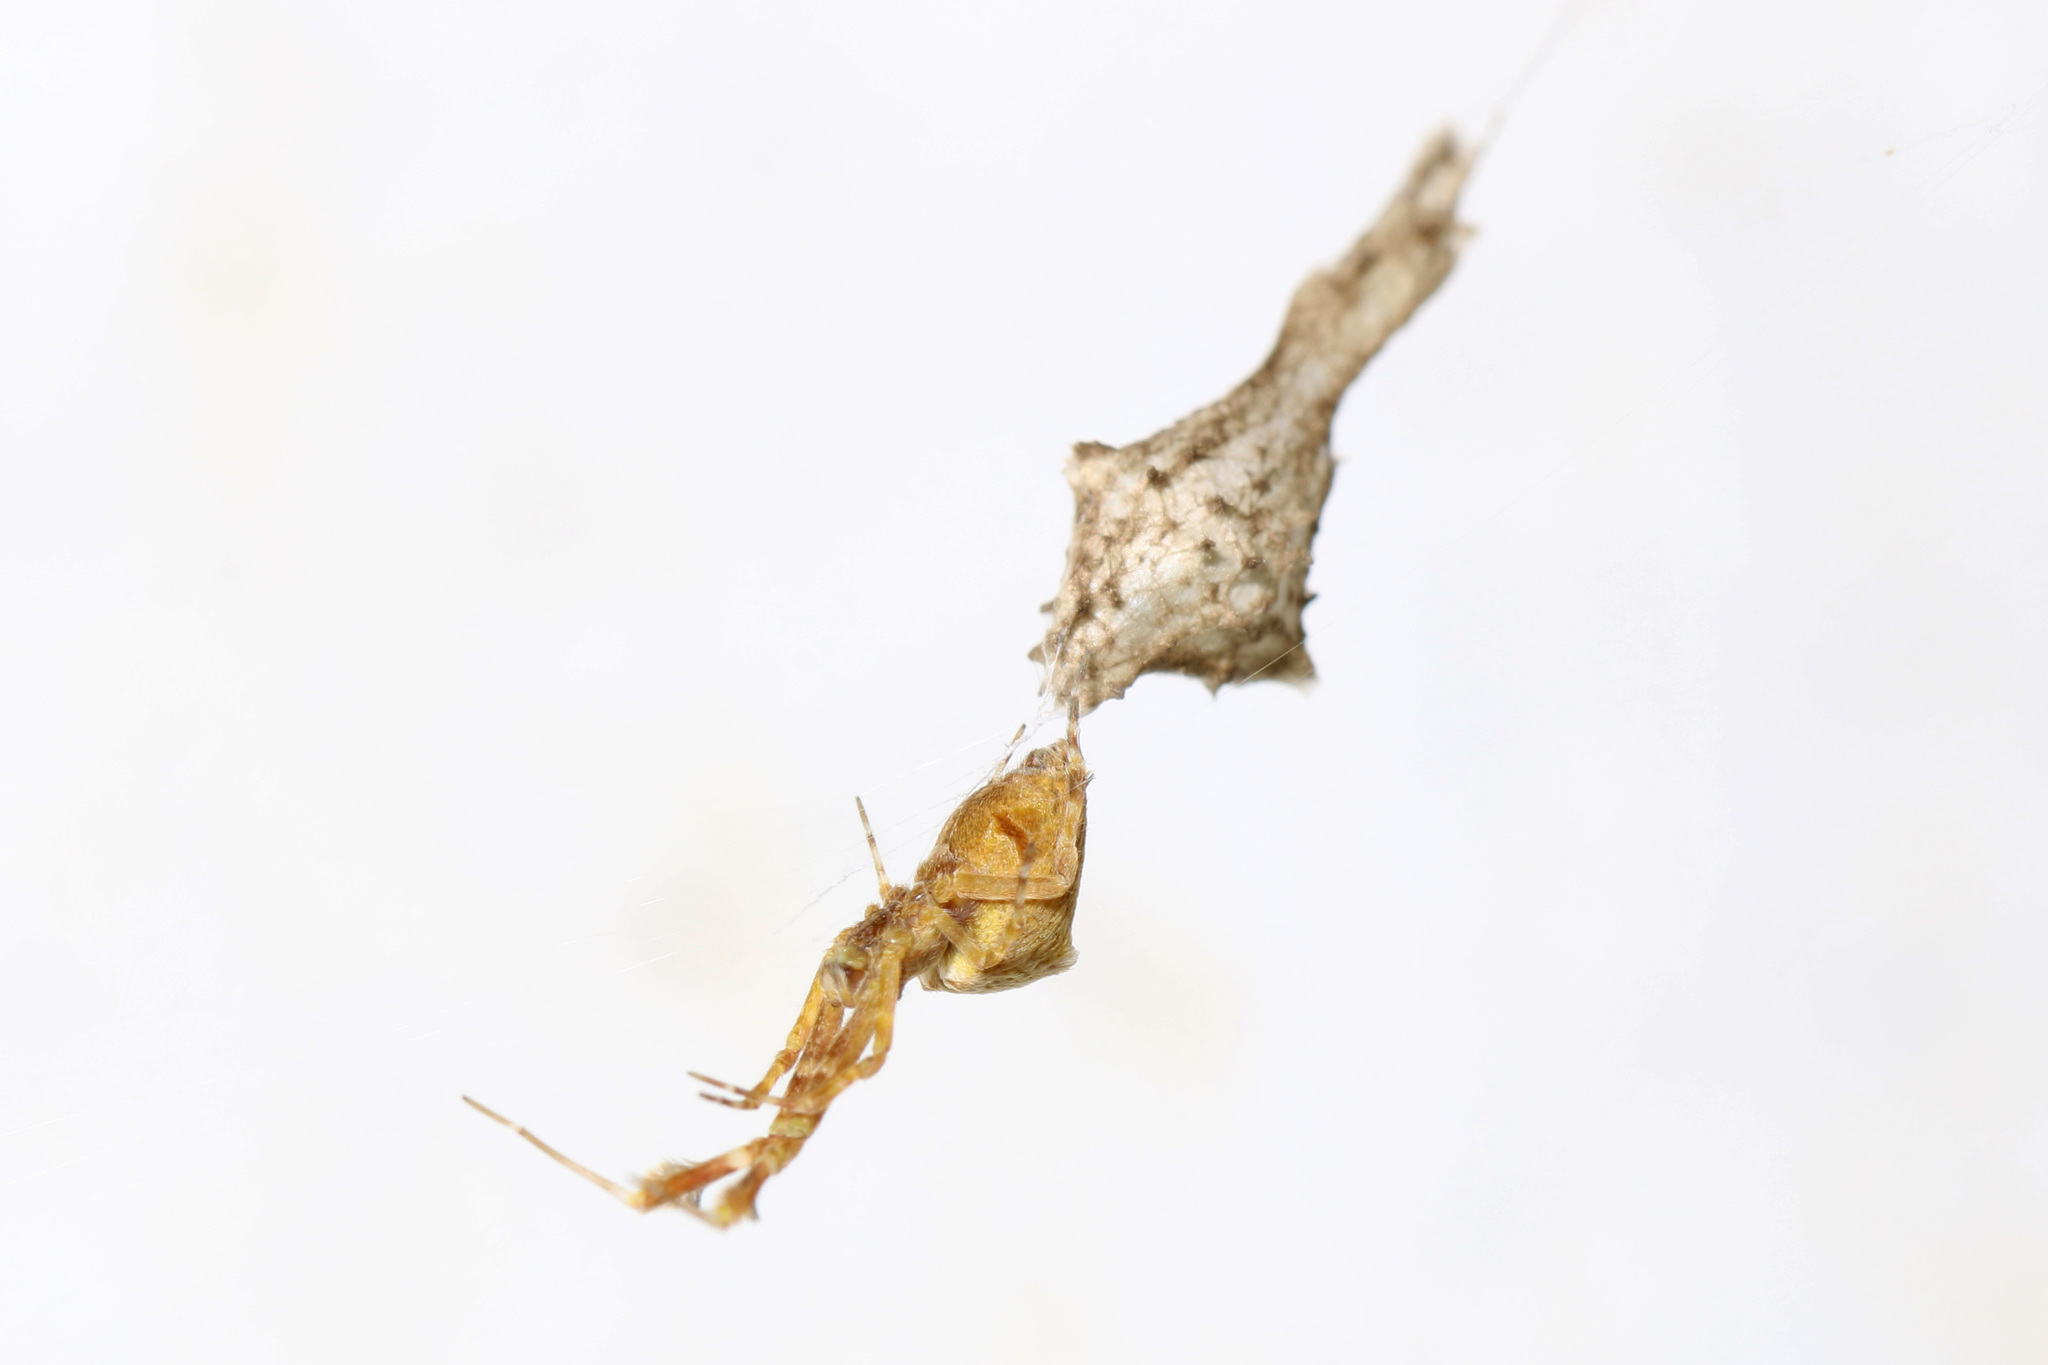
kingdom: Animalia
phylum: Arthropoda
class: Arachnida
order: Araneae
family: Uloboridae
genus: Uloborus
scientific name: Uloborus glomosus
